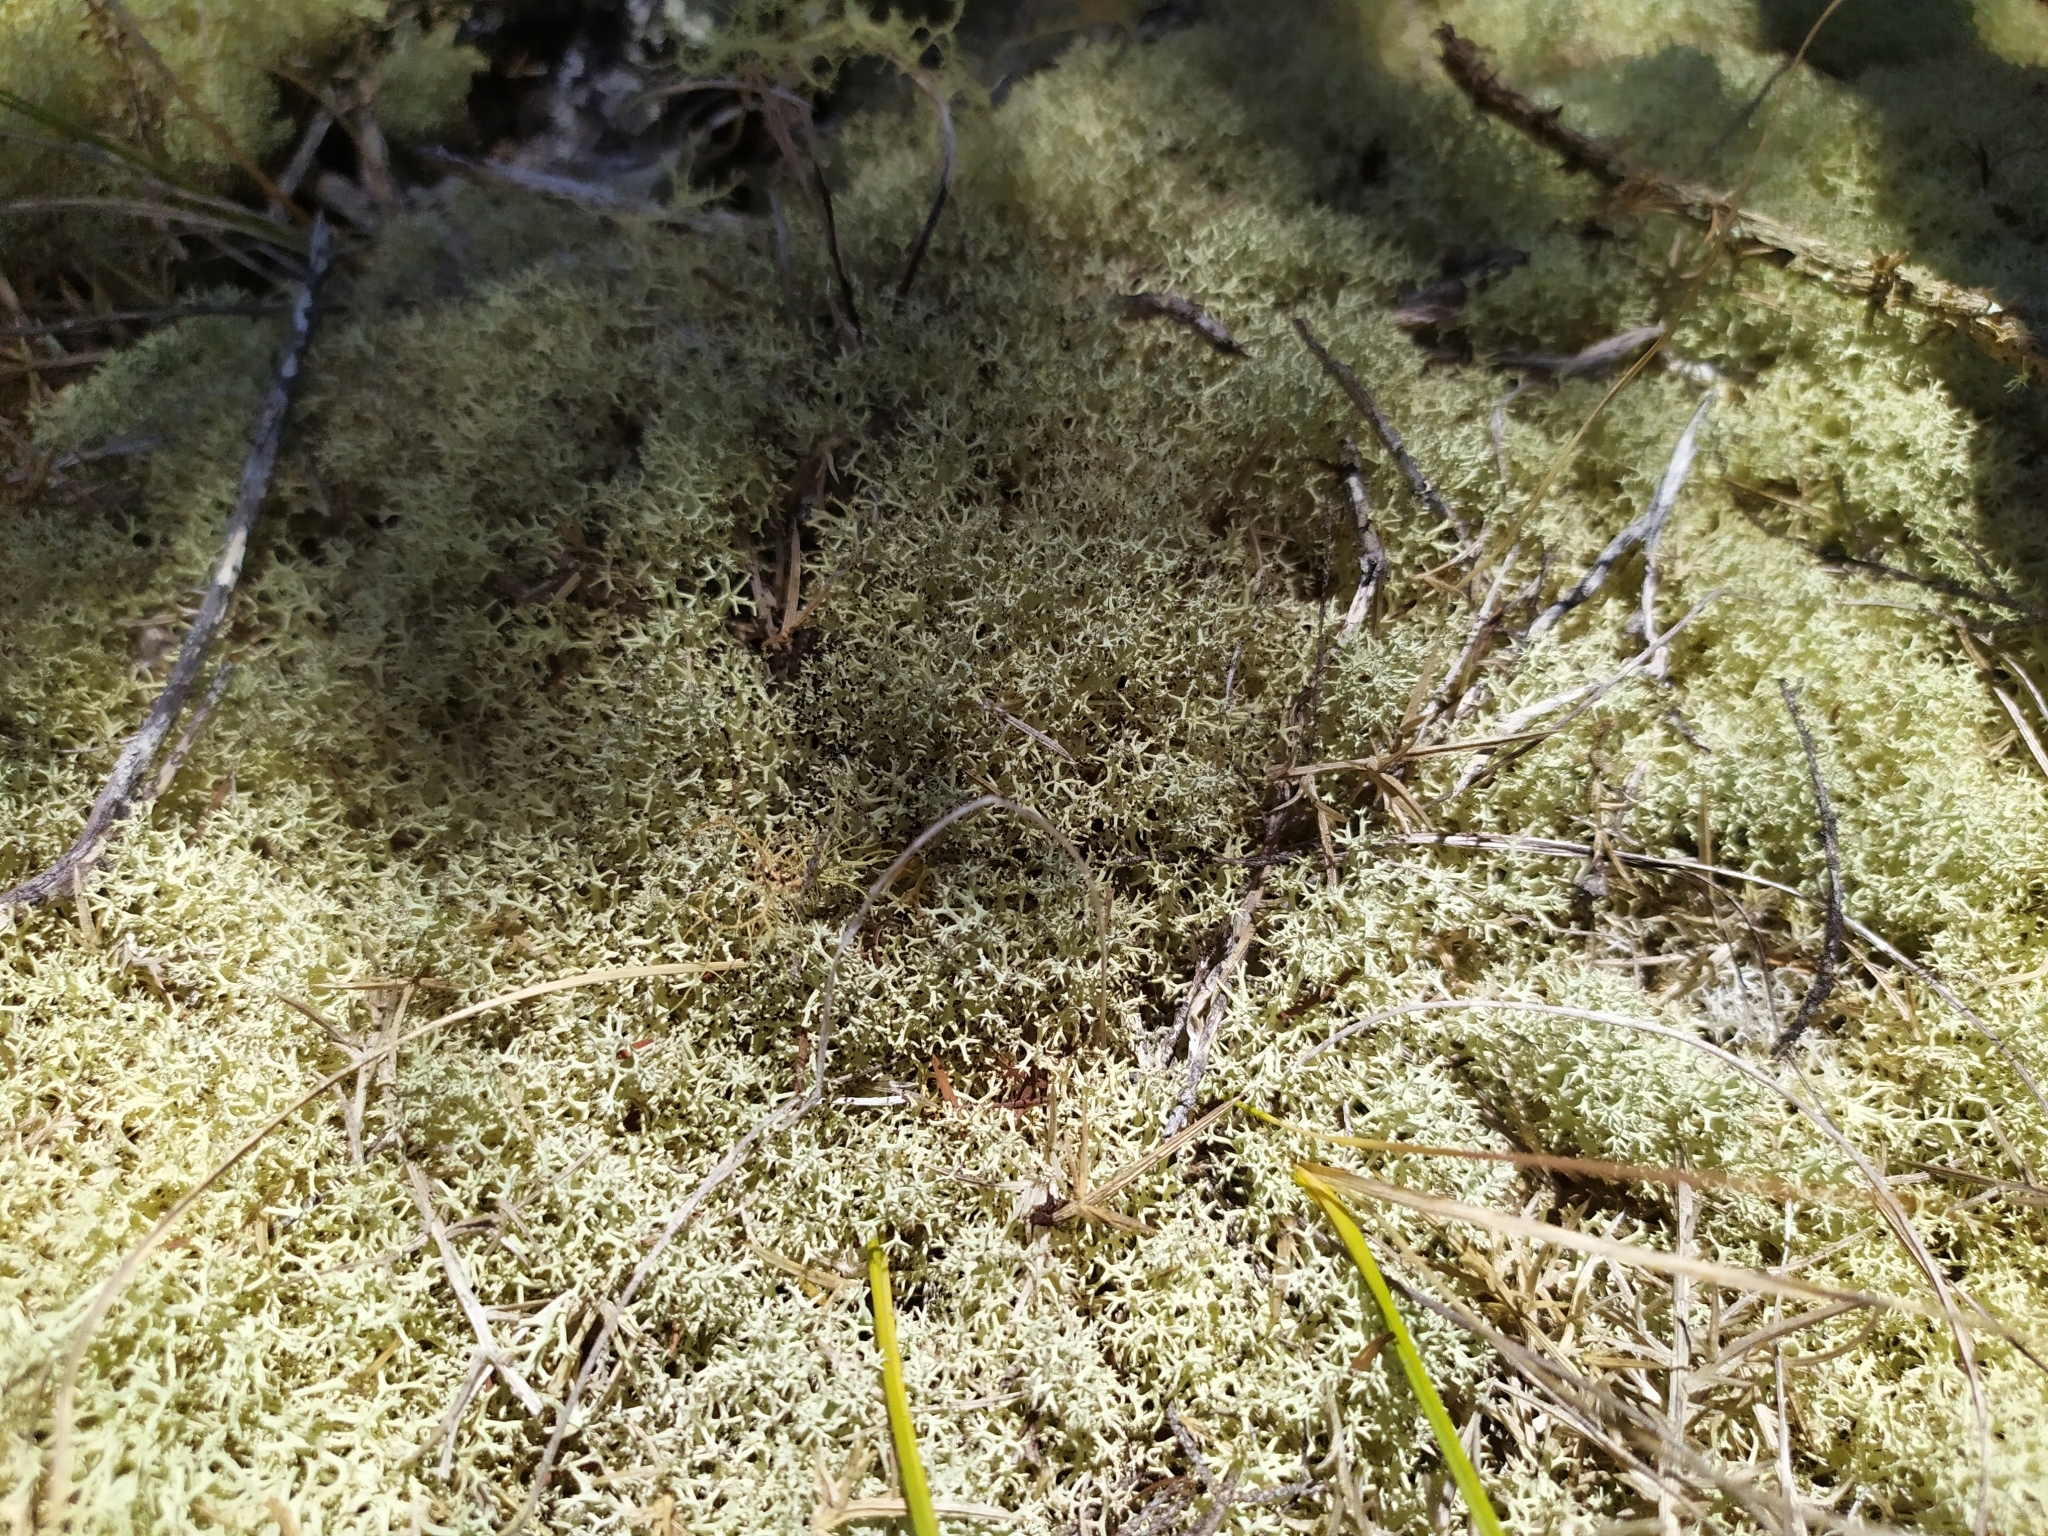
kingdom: Fungi
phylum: Ascomycota
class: Lecanoromycetes
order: Lecanorales
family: Cladoniaceae
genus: Cladonia
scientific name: Cladonia confusa
